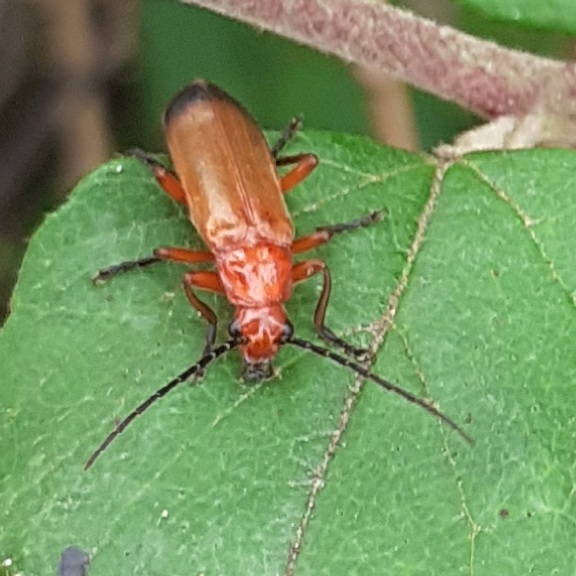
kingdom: Animalia
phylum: Arthropoda
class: Insecta
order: Coleoptera
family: Cantharidae
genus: Rhagonycha
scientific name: Rhagonycha fulva
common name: Common red soldier beetle
